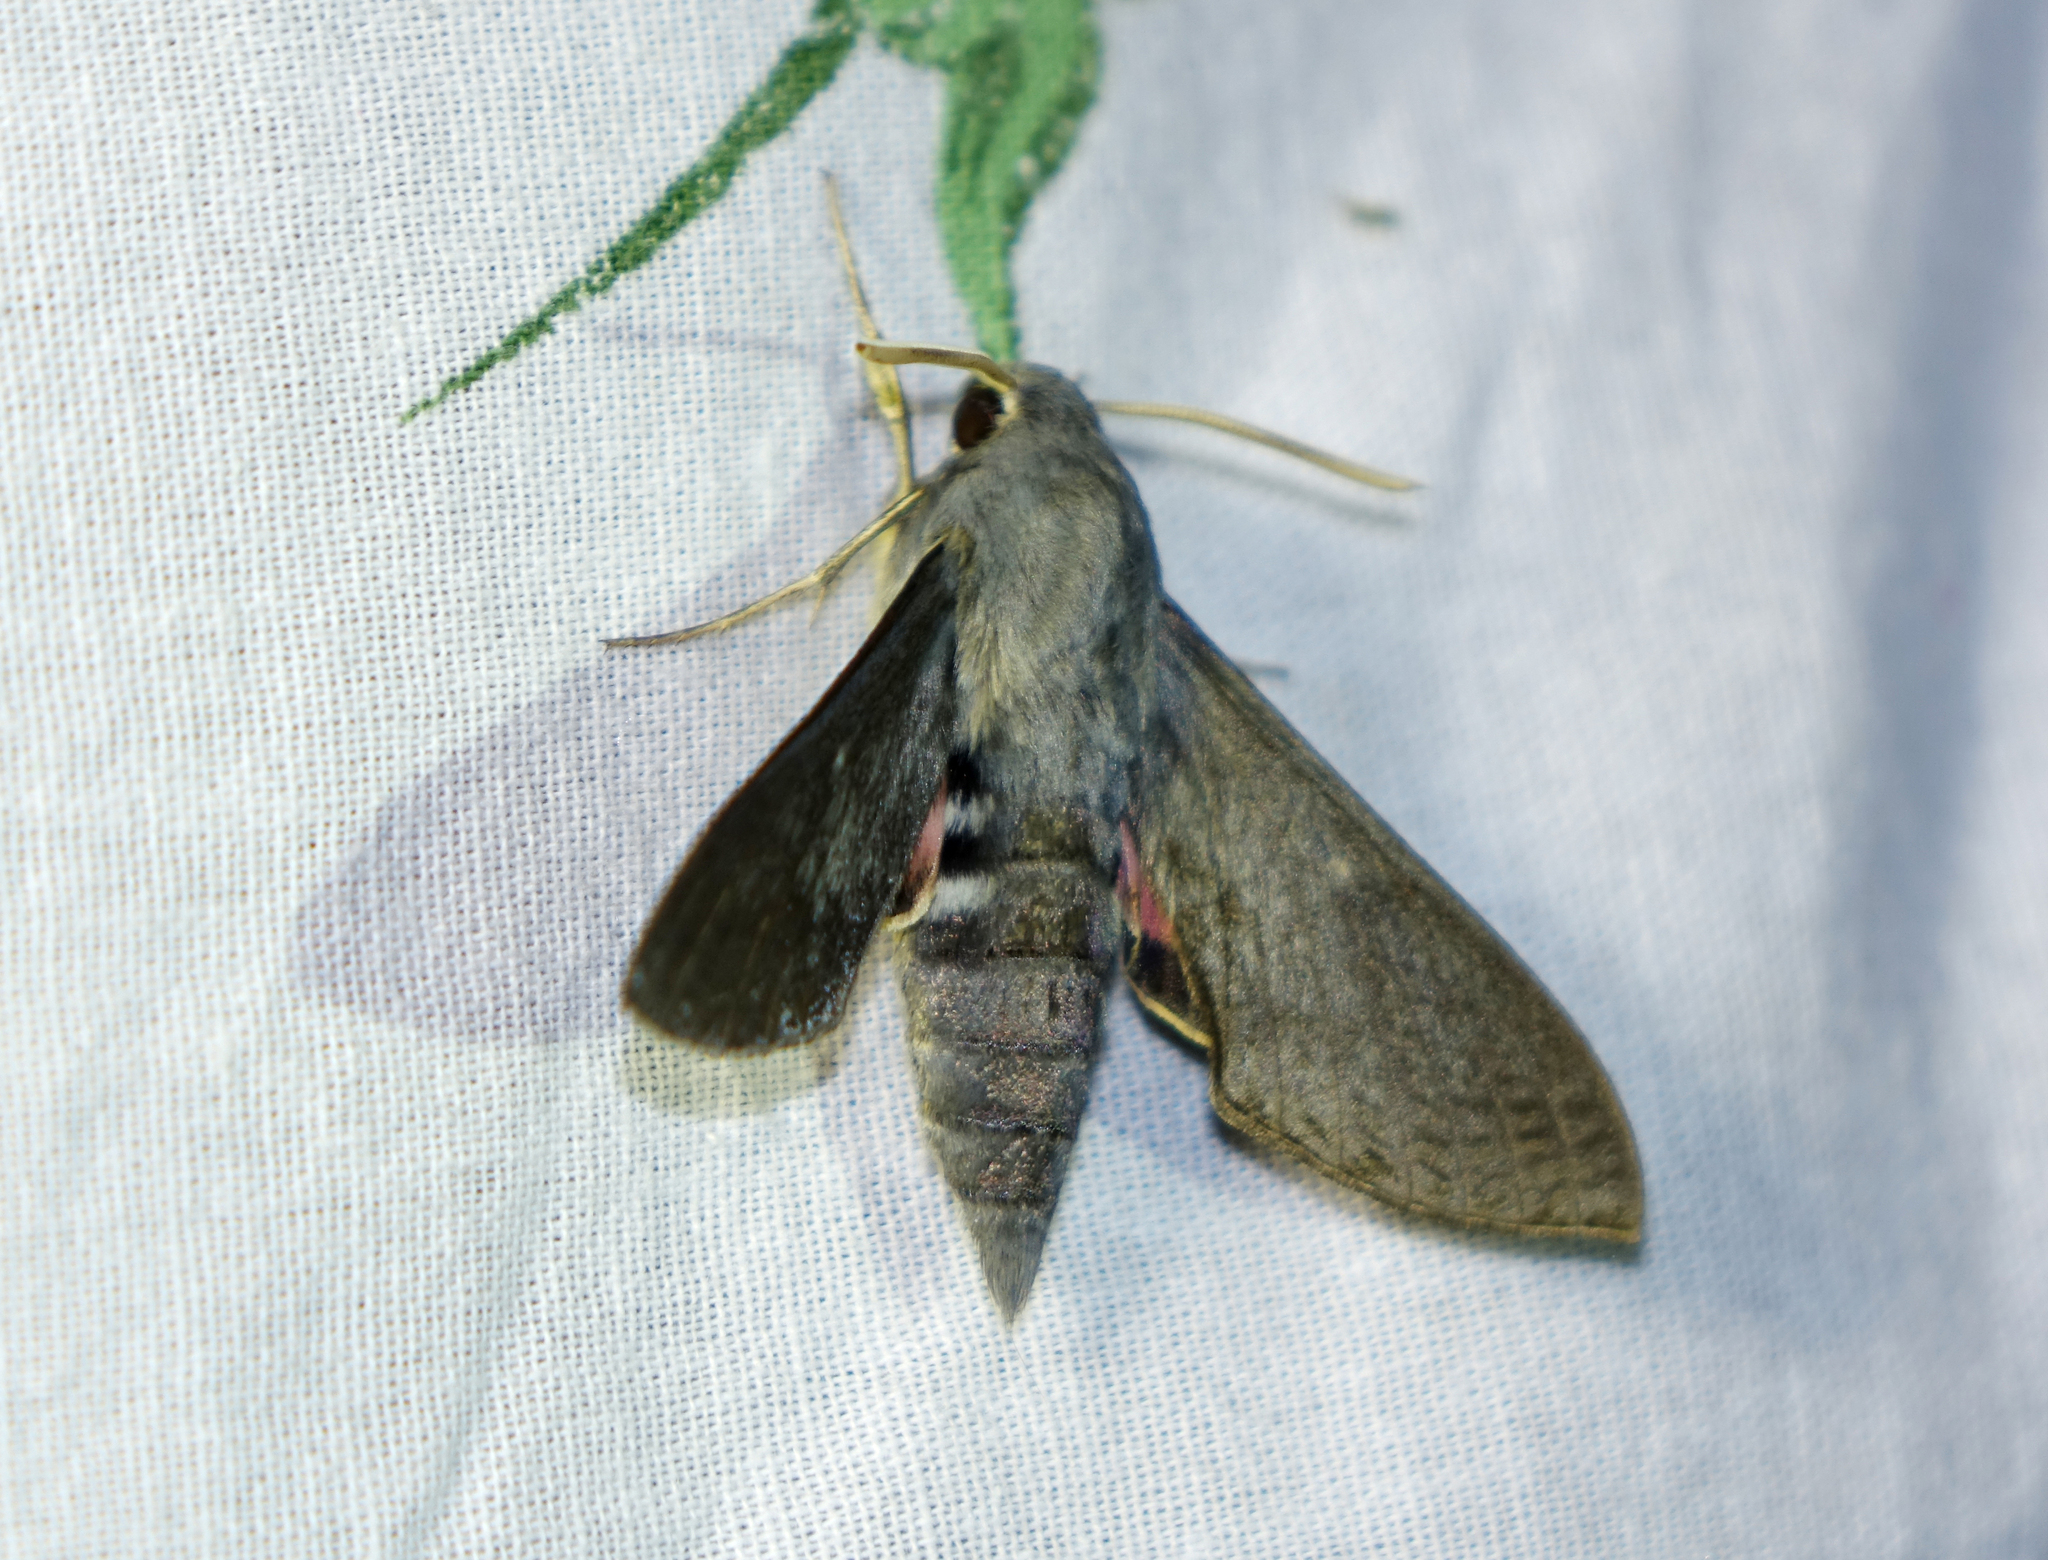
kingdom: Animalia
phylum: Arthropoda
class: Insecta
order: Lepidoptera
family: Sphingidae
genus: Hyles
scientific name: Hyles vespertilio
